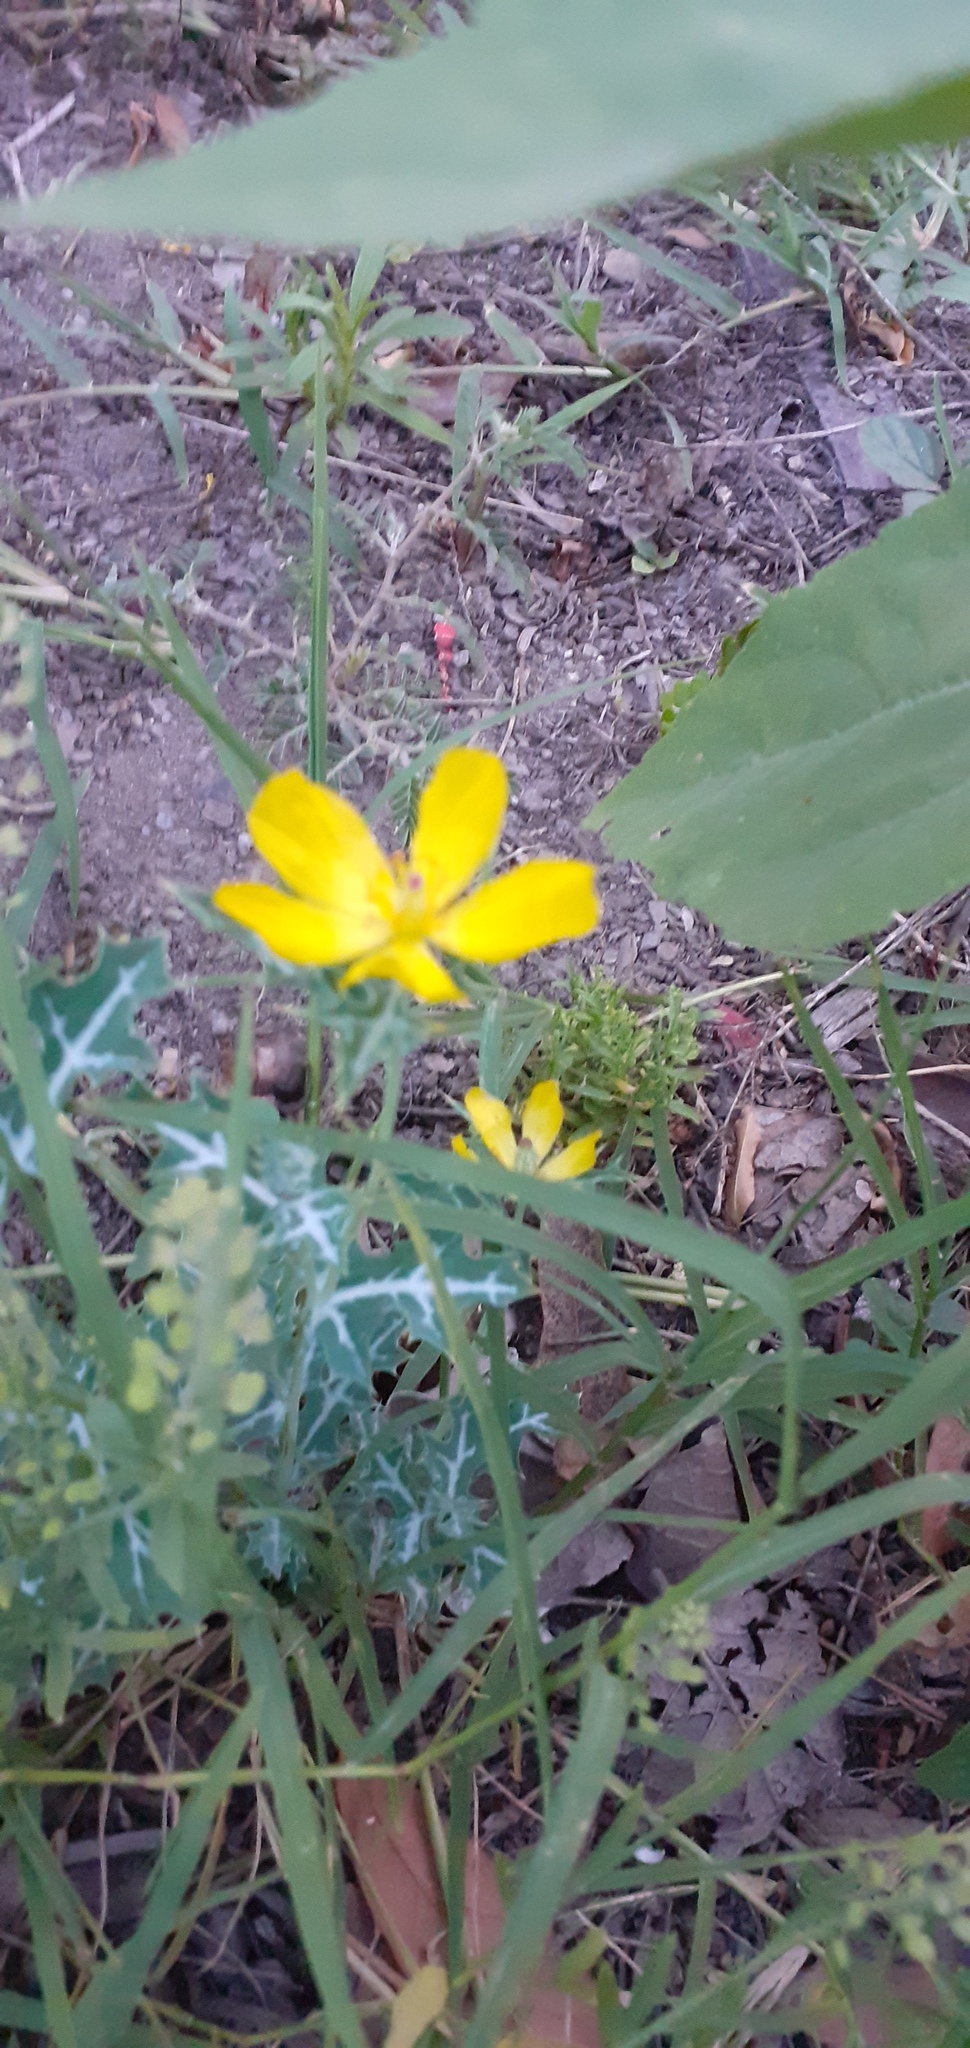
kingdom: Plantae
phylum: Tracheophyta
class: Magnoliopsida
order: Ranunculales
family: Papaveraceae
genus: Argemone
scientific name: Argemone mexicana
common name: Mexican poppy
